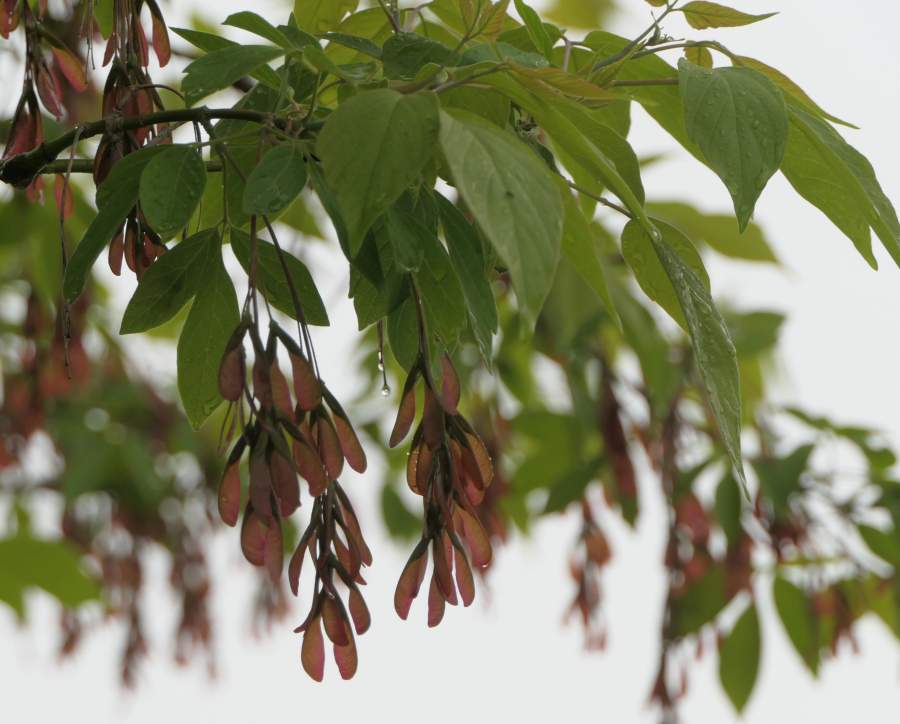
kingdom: Plantae
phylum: Tracheophyta
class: Magnoliopsida
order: Sapindales
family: Sapindaceae
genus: Acer
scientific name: Acer negundo
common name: Ashleaf maple
